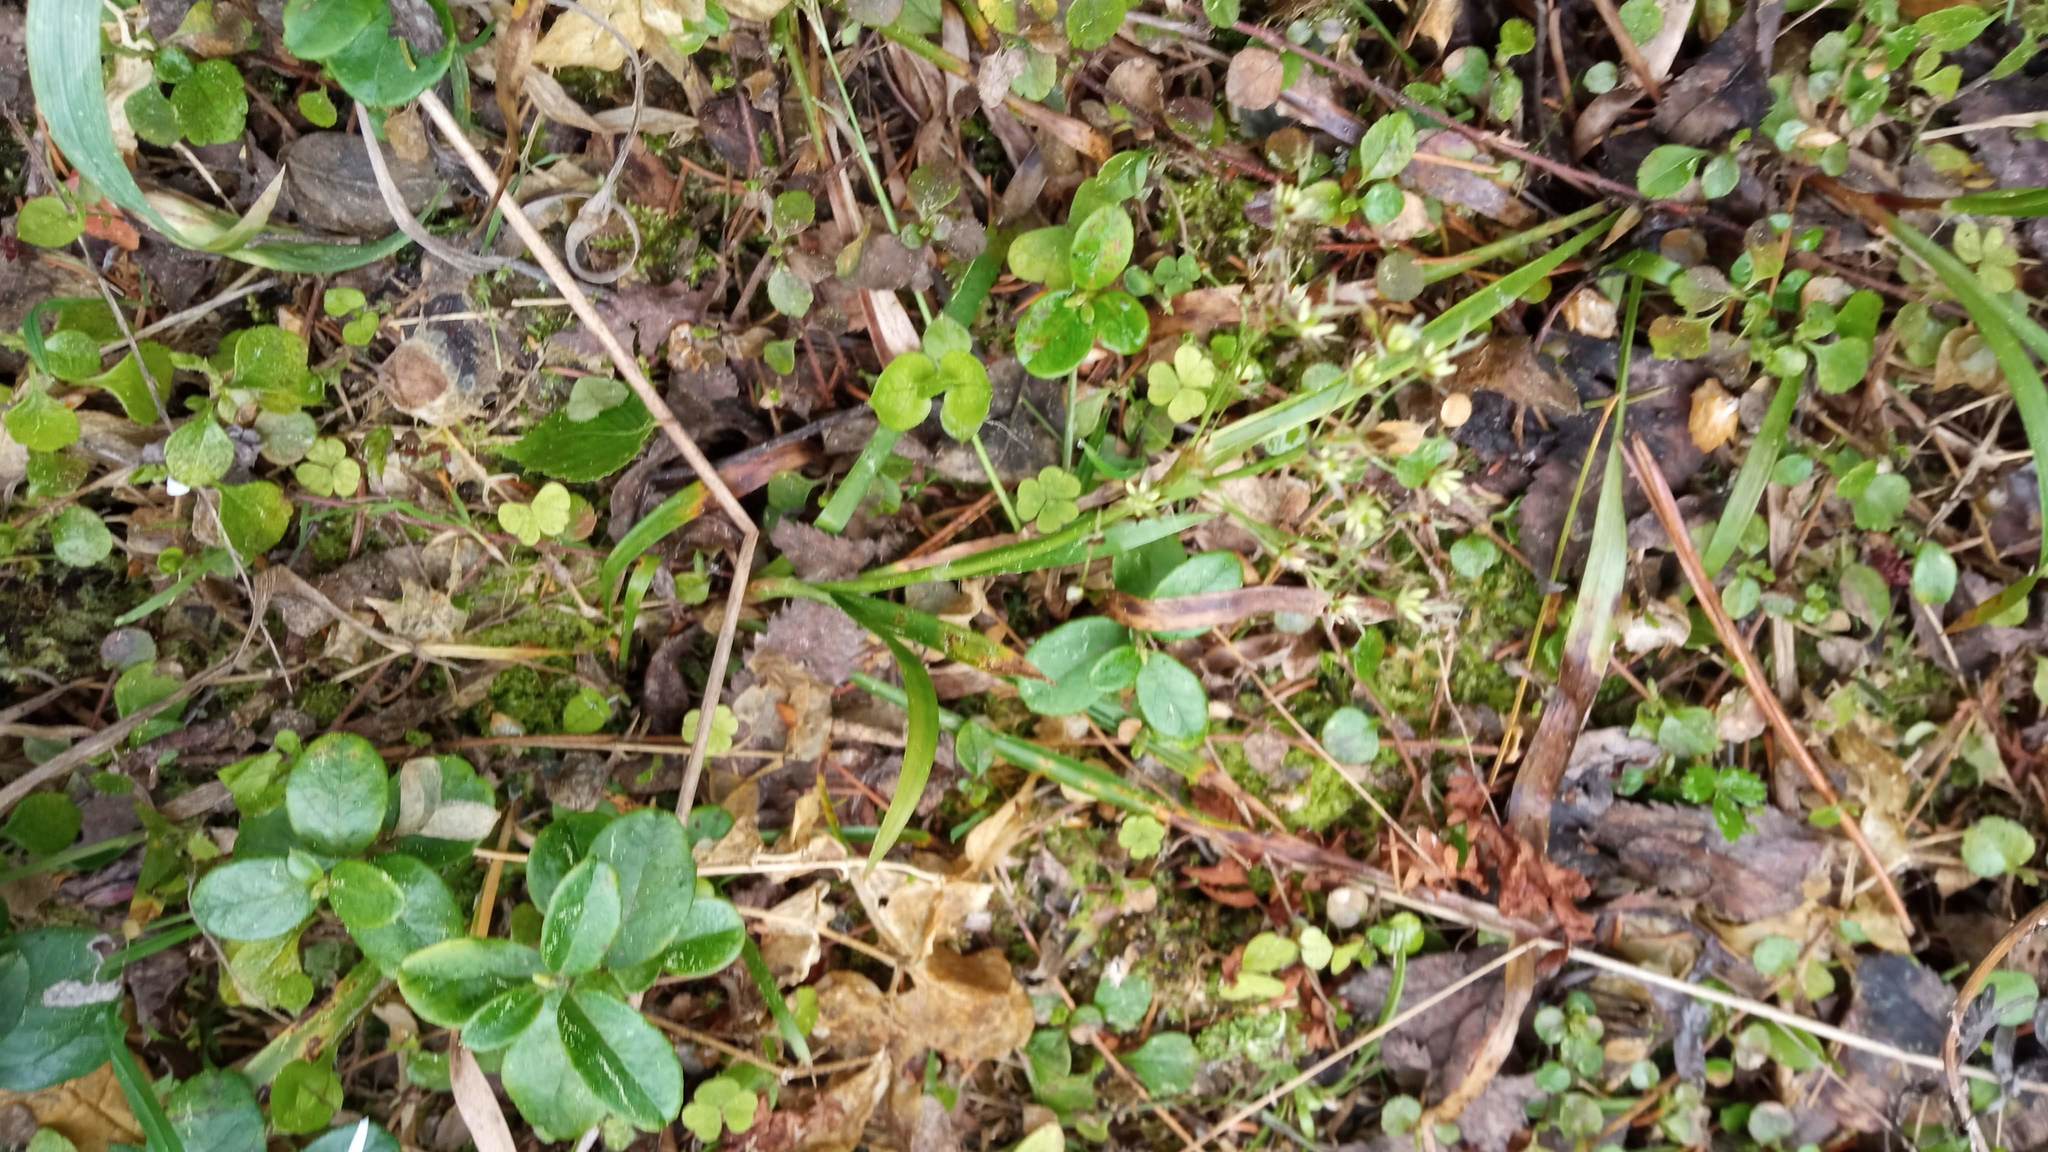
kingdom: Plantae
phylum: Tracheophyta
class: Liliopsida
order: Poales
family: Juncaceae
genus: Luzula
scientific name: Luzula pilosa
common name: Hairy wood-rush
